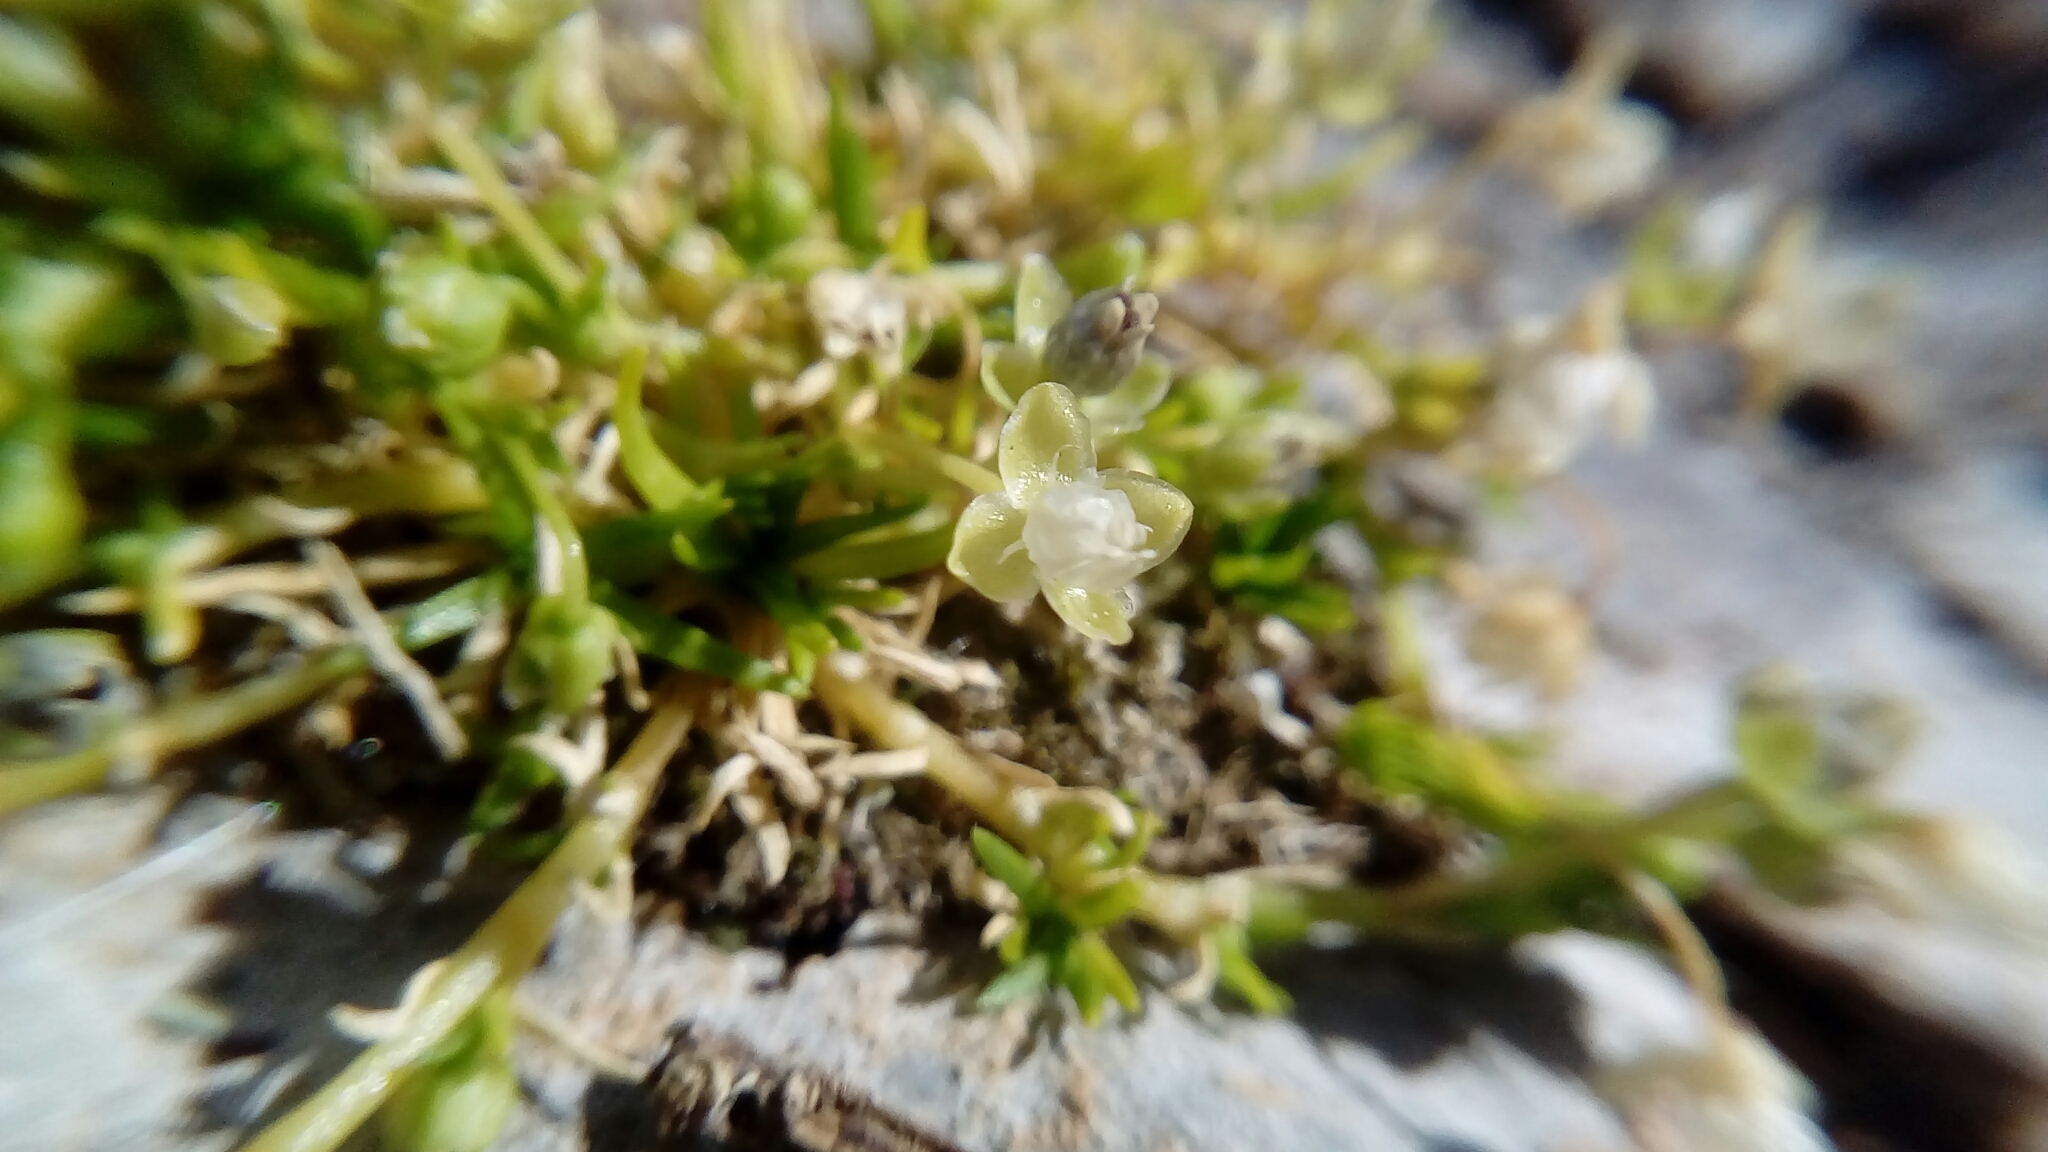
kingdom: Plantae
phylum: Tracheophyta
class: Magnoliopsida
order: Caryophyllales
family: Caryophyllaceae
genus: Sagina
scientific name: Sagina procumbens
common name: Procumbent pearlwort
